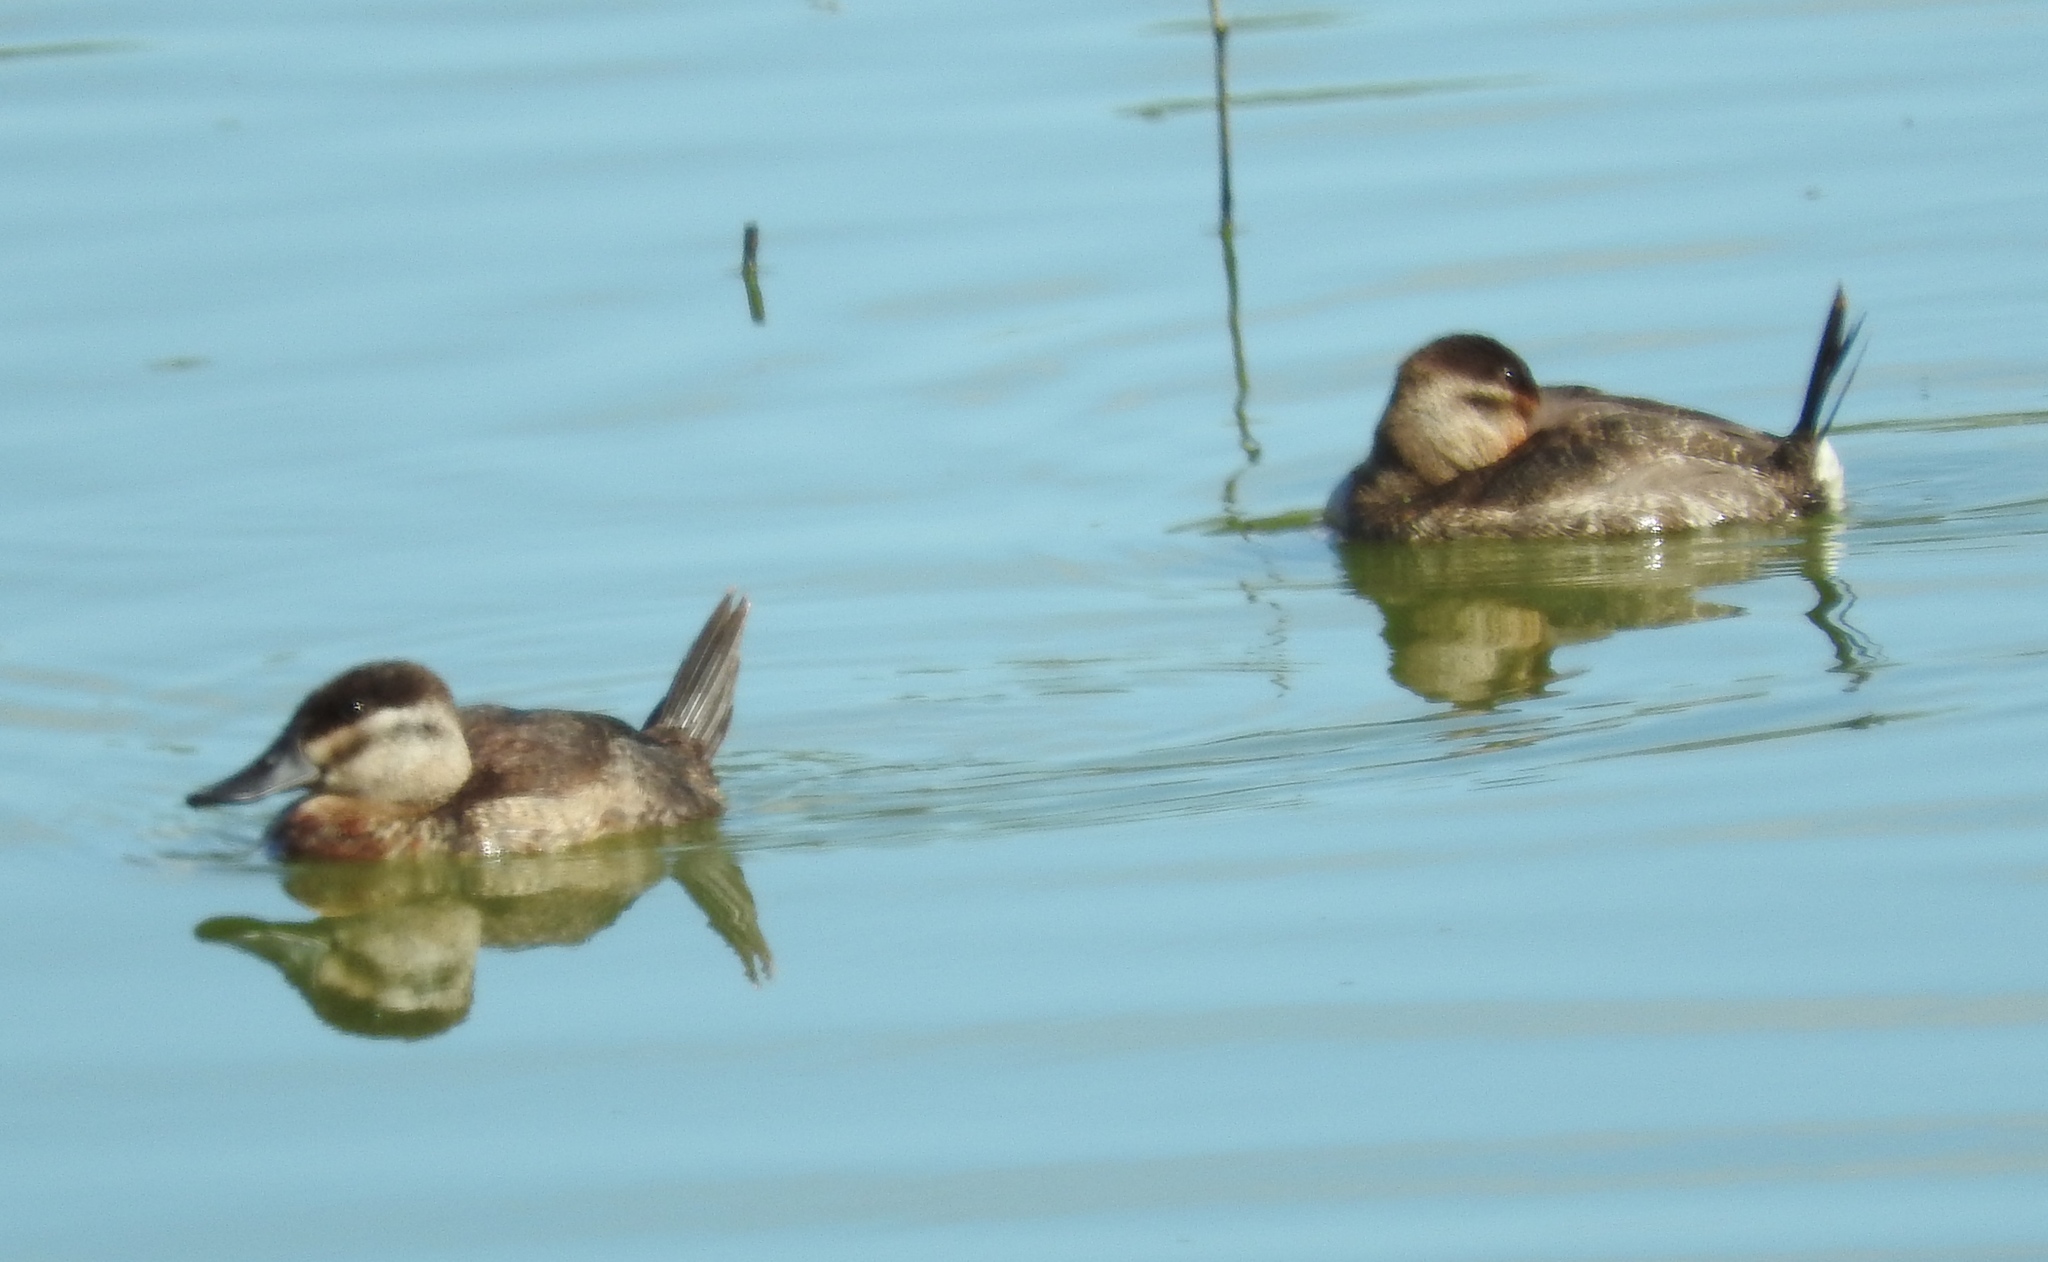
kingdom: Animalia
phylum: Chordata
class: Aves
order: Anseriformes
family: Anatidae
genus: Oxyura
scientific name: Oxyura jamaicensis
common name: Ruddy duck
